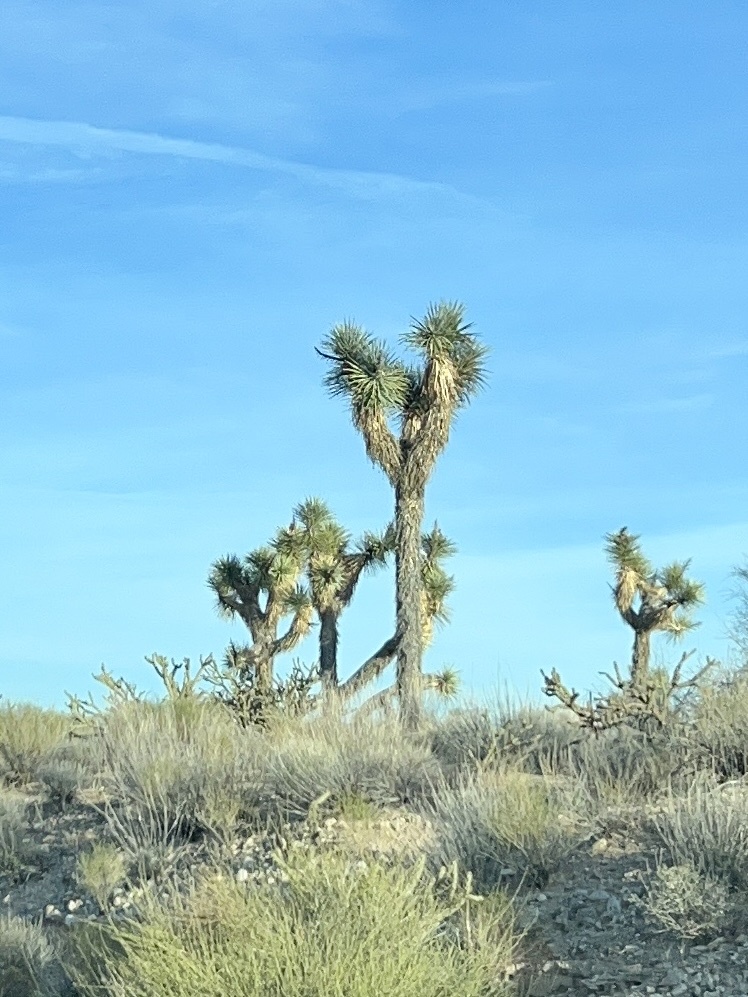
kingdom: Plantae
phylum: Tracheophyta
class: Liliopsida
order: Asparagales
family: Asparagaceae
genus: Yucca
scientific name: Yucca brevifolia
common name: Joshua tree
